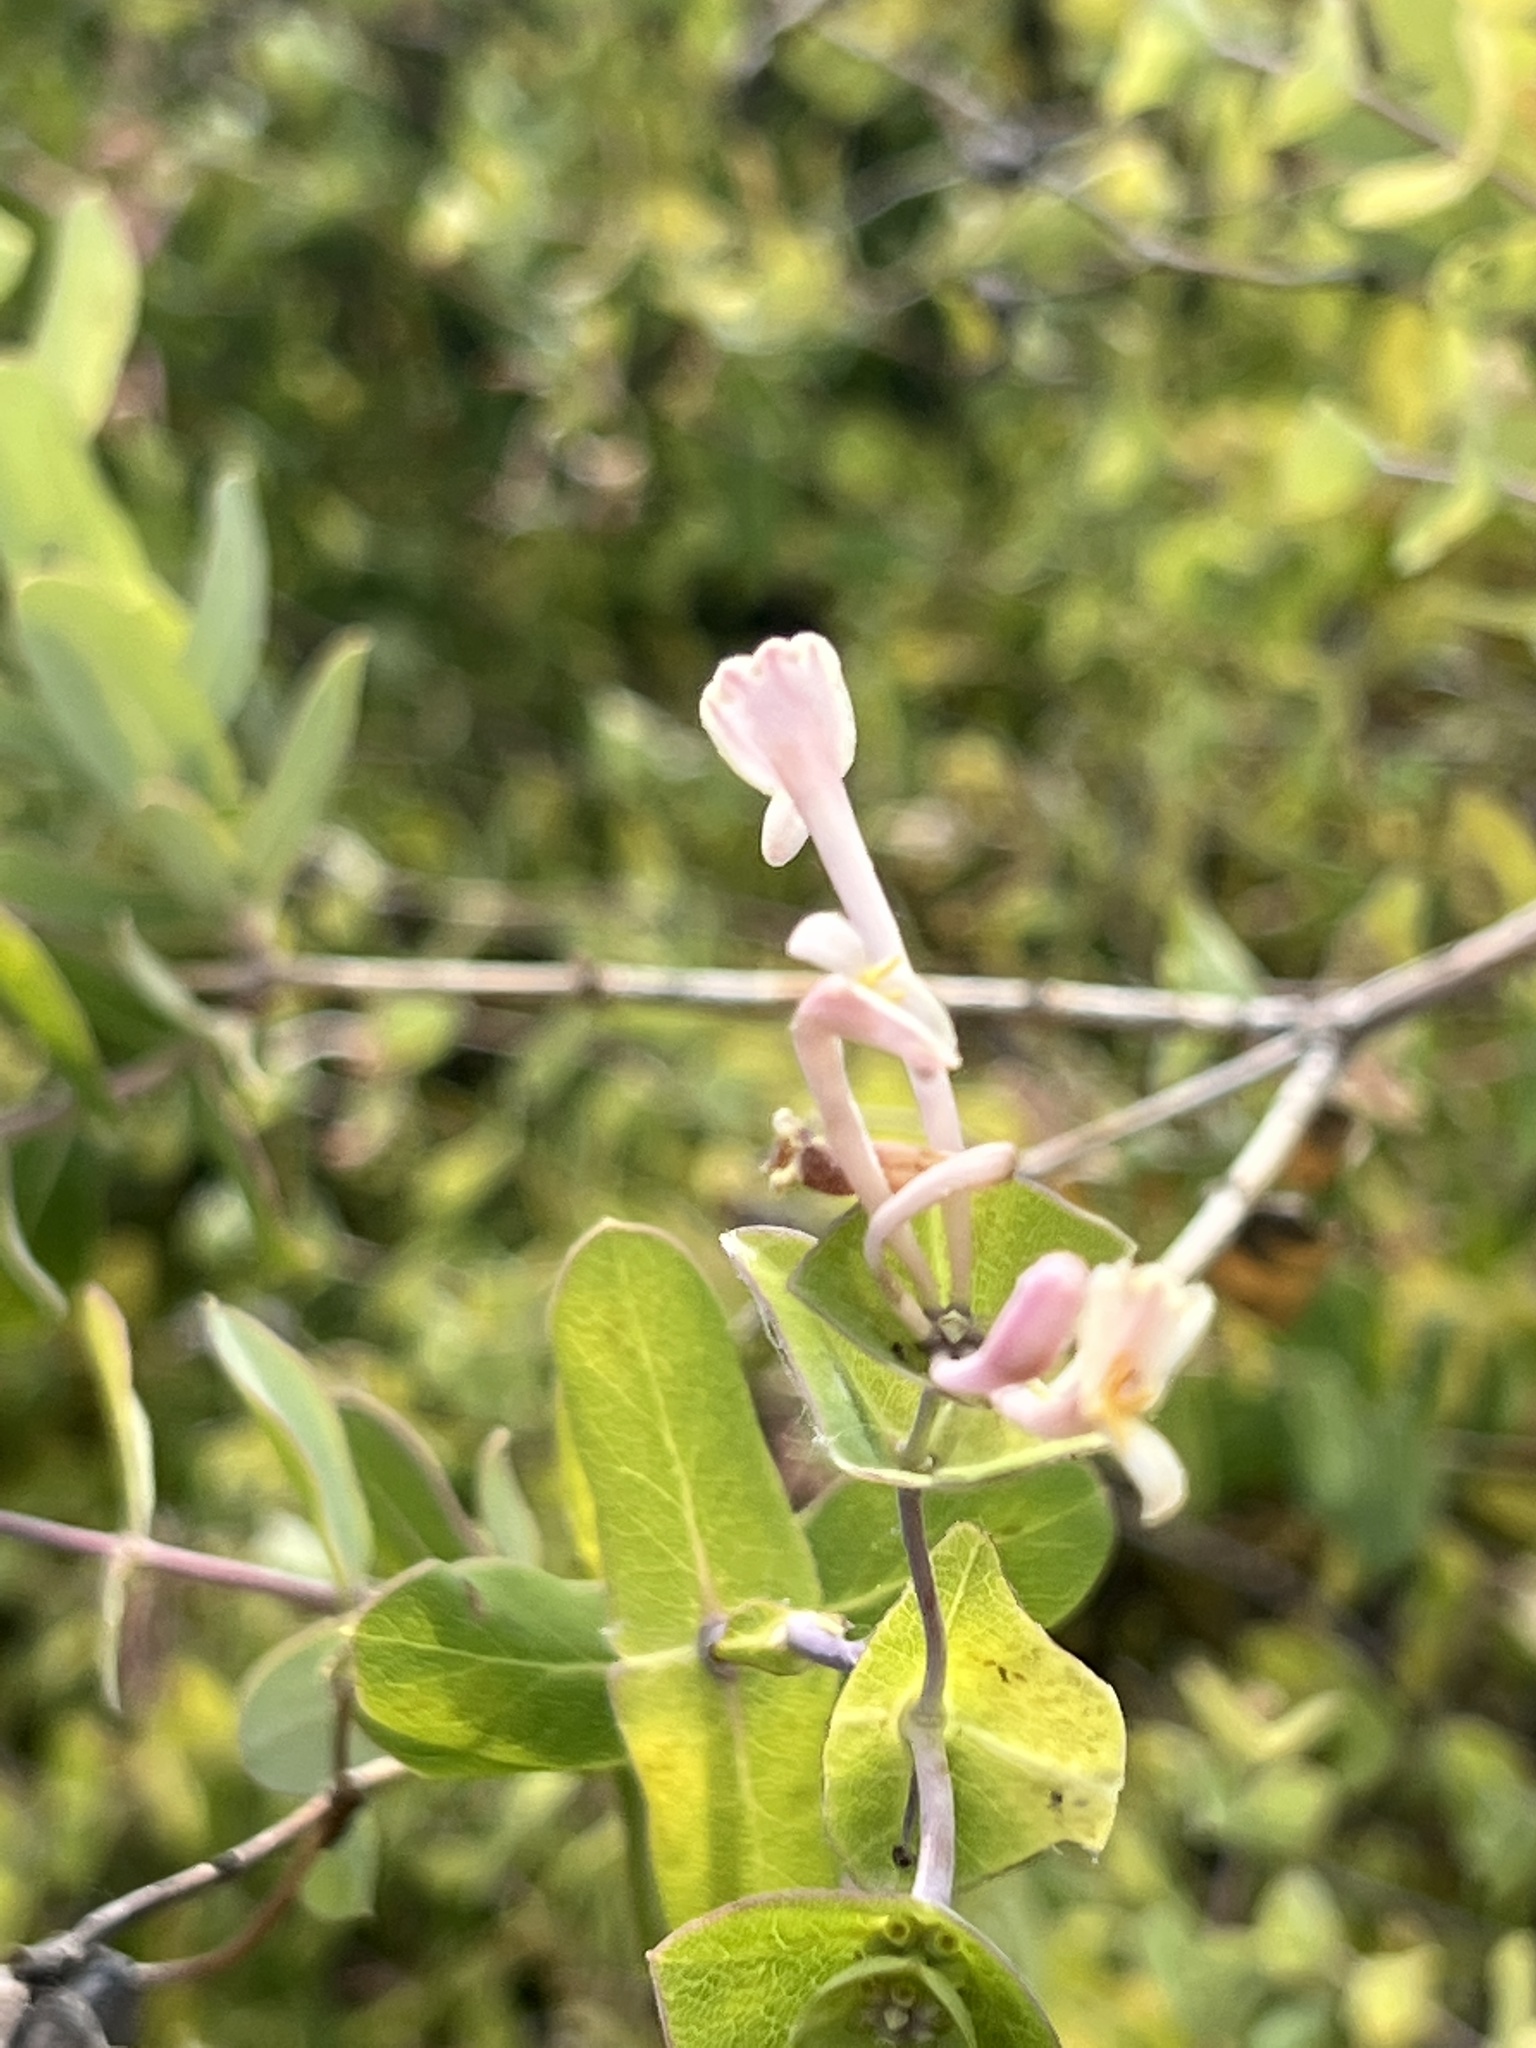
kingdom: Plantae
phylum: Tracheophyta
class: Magnoliopsida
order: Dipsacales
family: Caprifoliaceae
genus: Lonicera
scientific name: Lonicera implexa
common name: Minorca honeysuckle
